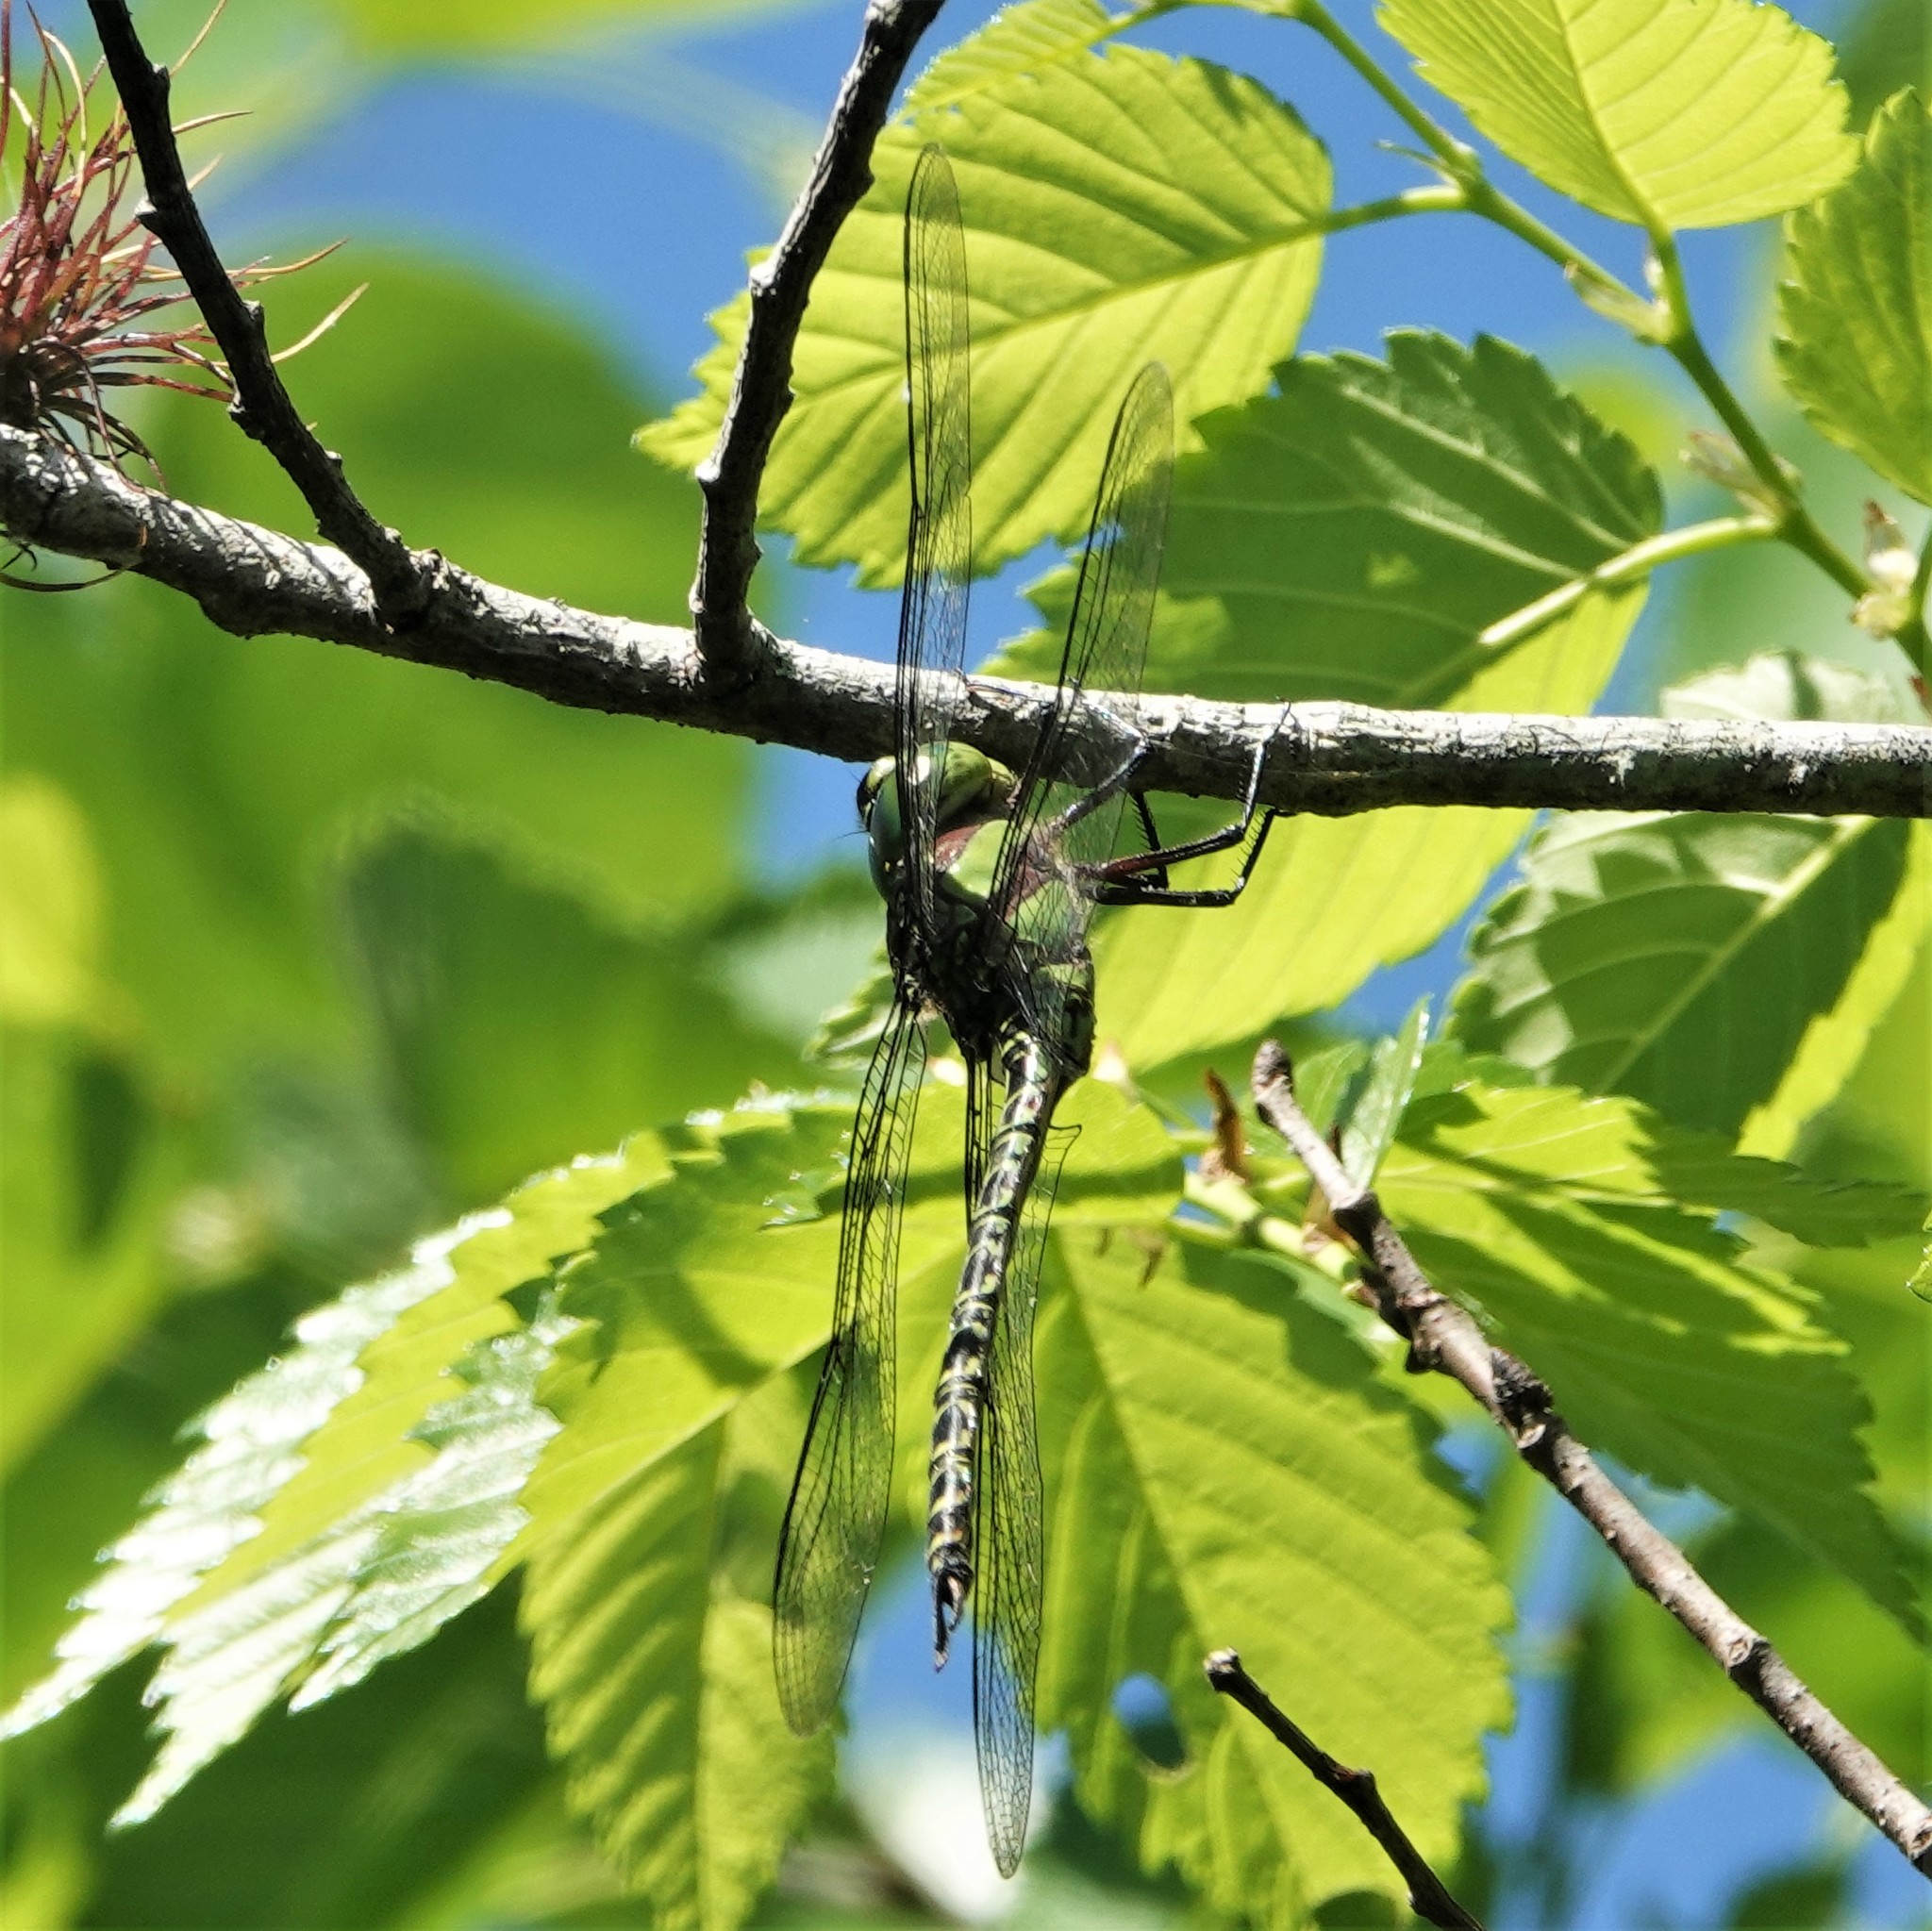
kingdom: Animalia
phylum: Arthropoda
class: Insecta
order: Odonata
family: Aeshnidae
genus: Coryphaeschna
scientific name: Coryphaeschna ingens
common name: Regal darner
